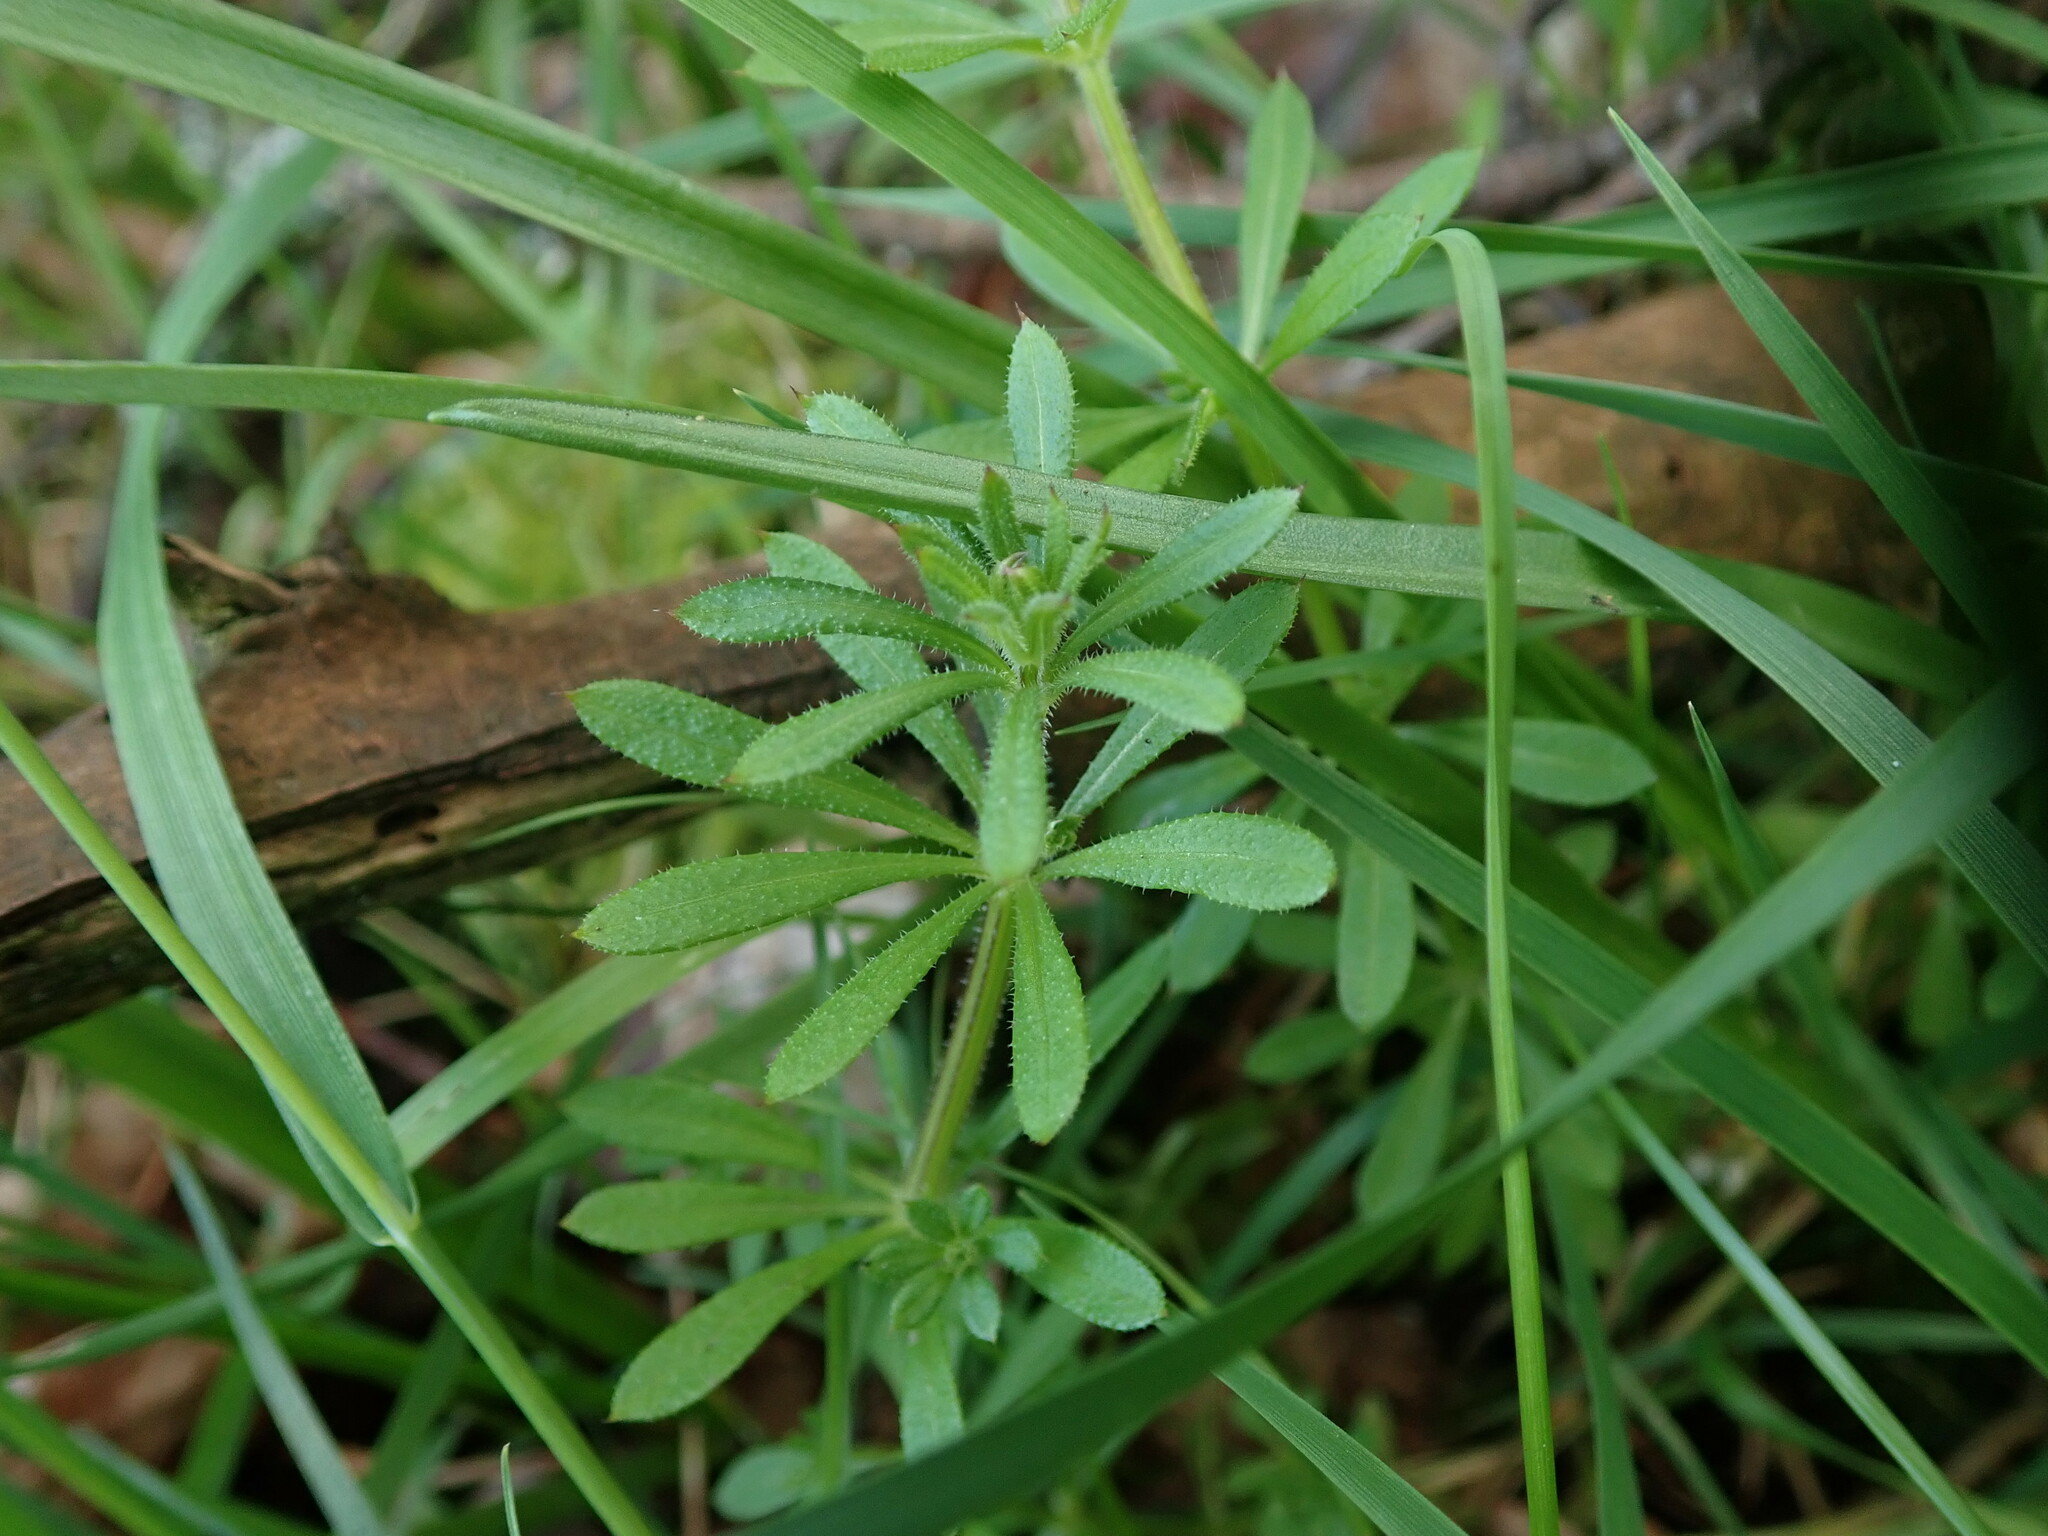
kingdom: Plantae
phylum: Tracheophyta
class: Magnoliopsida
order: Gentianales
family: Rubiaceae
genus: Galium
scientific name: Galium aparine
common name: Cleavers
